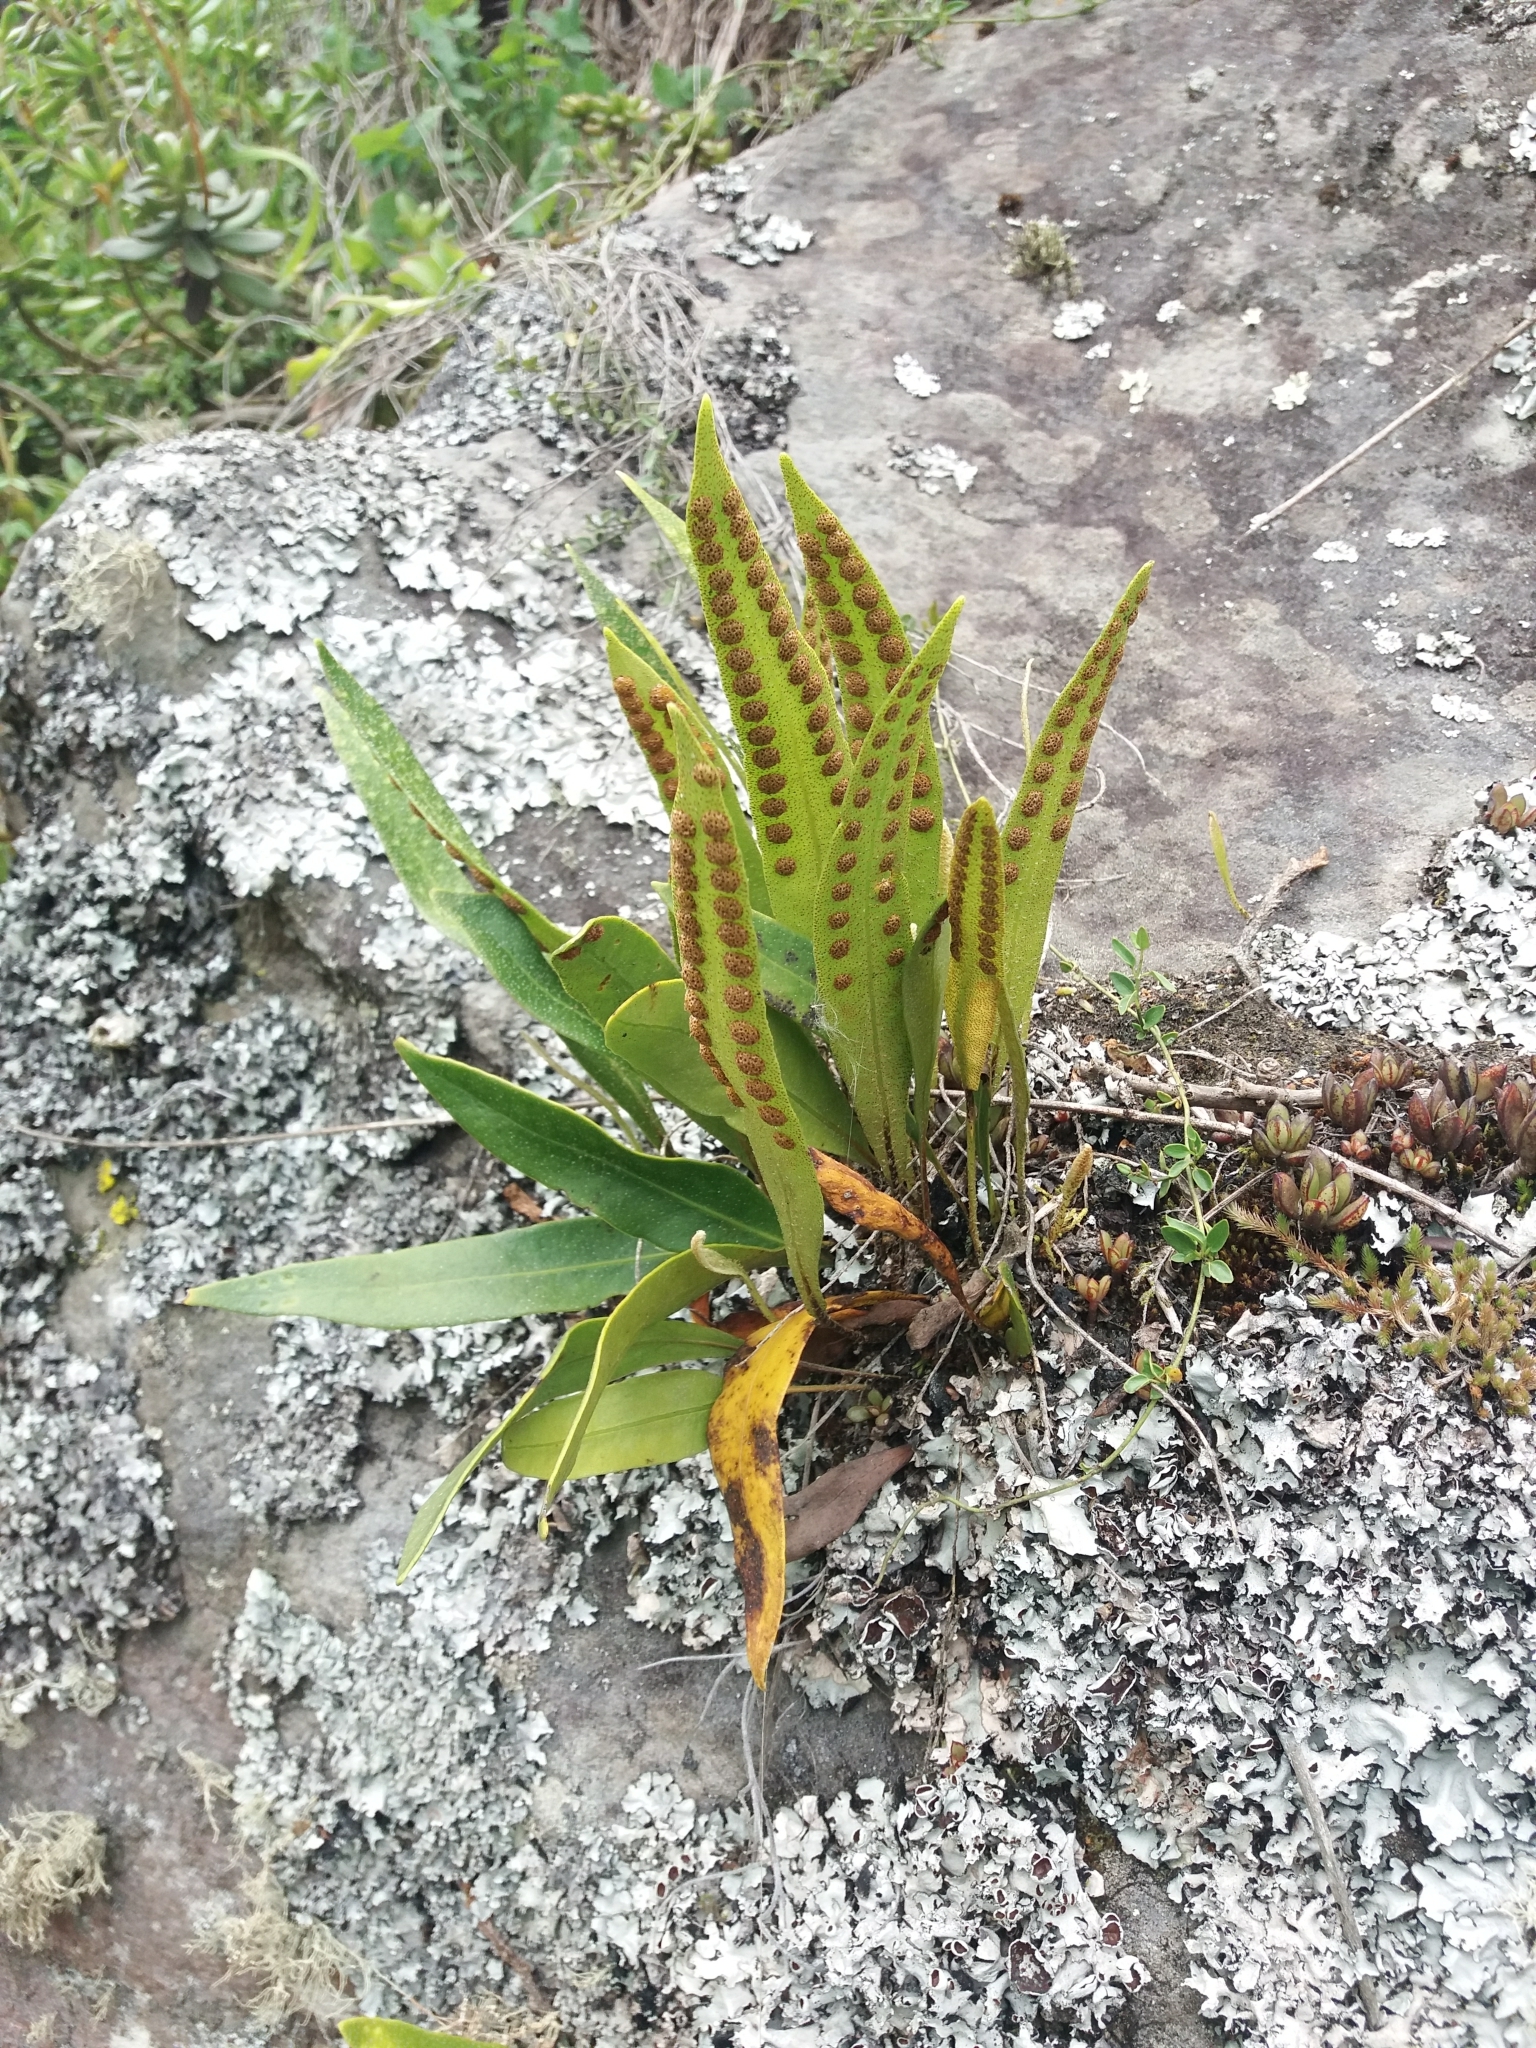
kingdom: Plantae
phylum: Tracheophyta
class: Polypodiopsida
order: Polypodiales
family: Polypodiaceae
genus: Pleopeltis
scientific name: Pleopeltis macrocarpa
